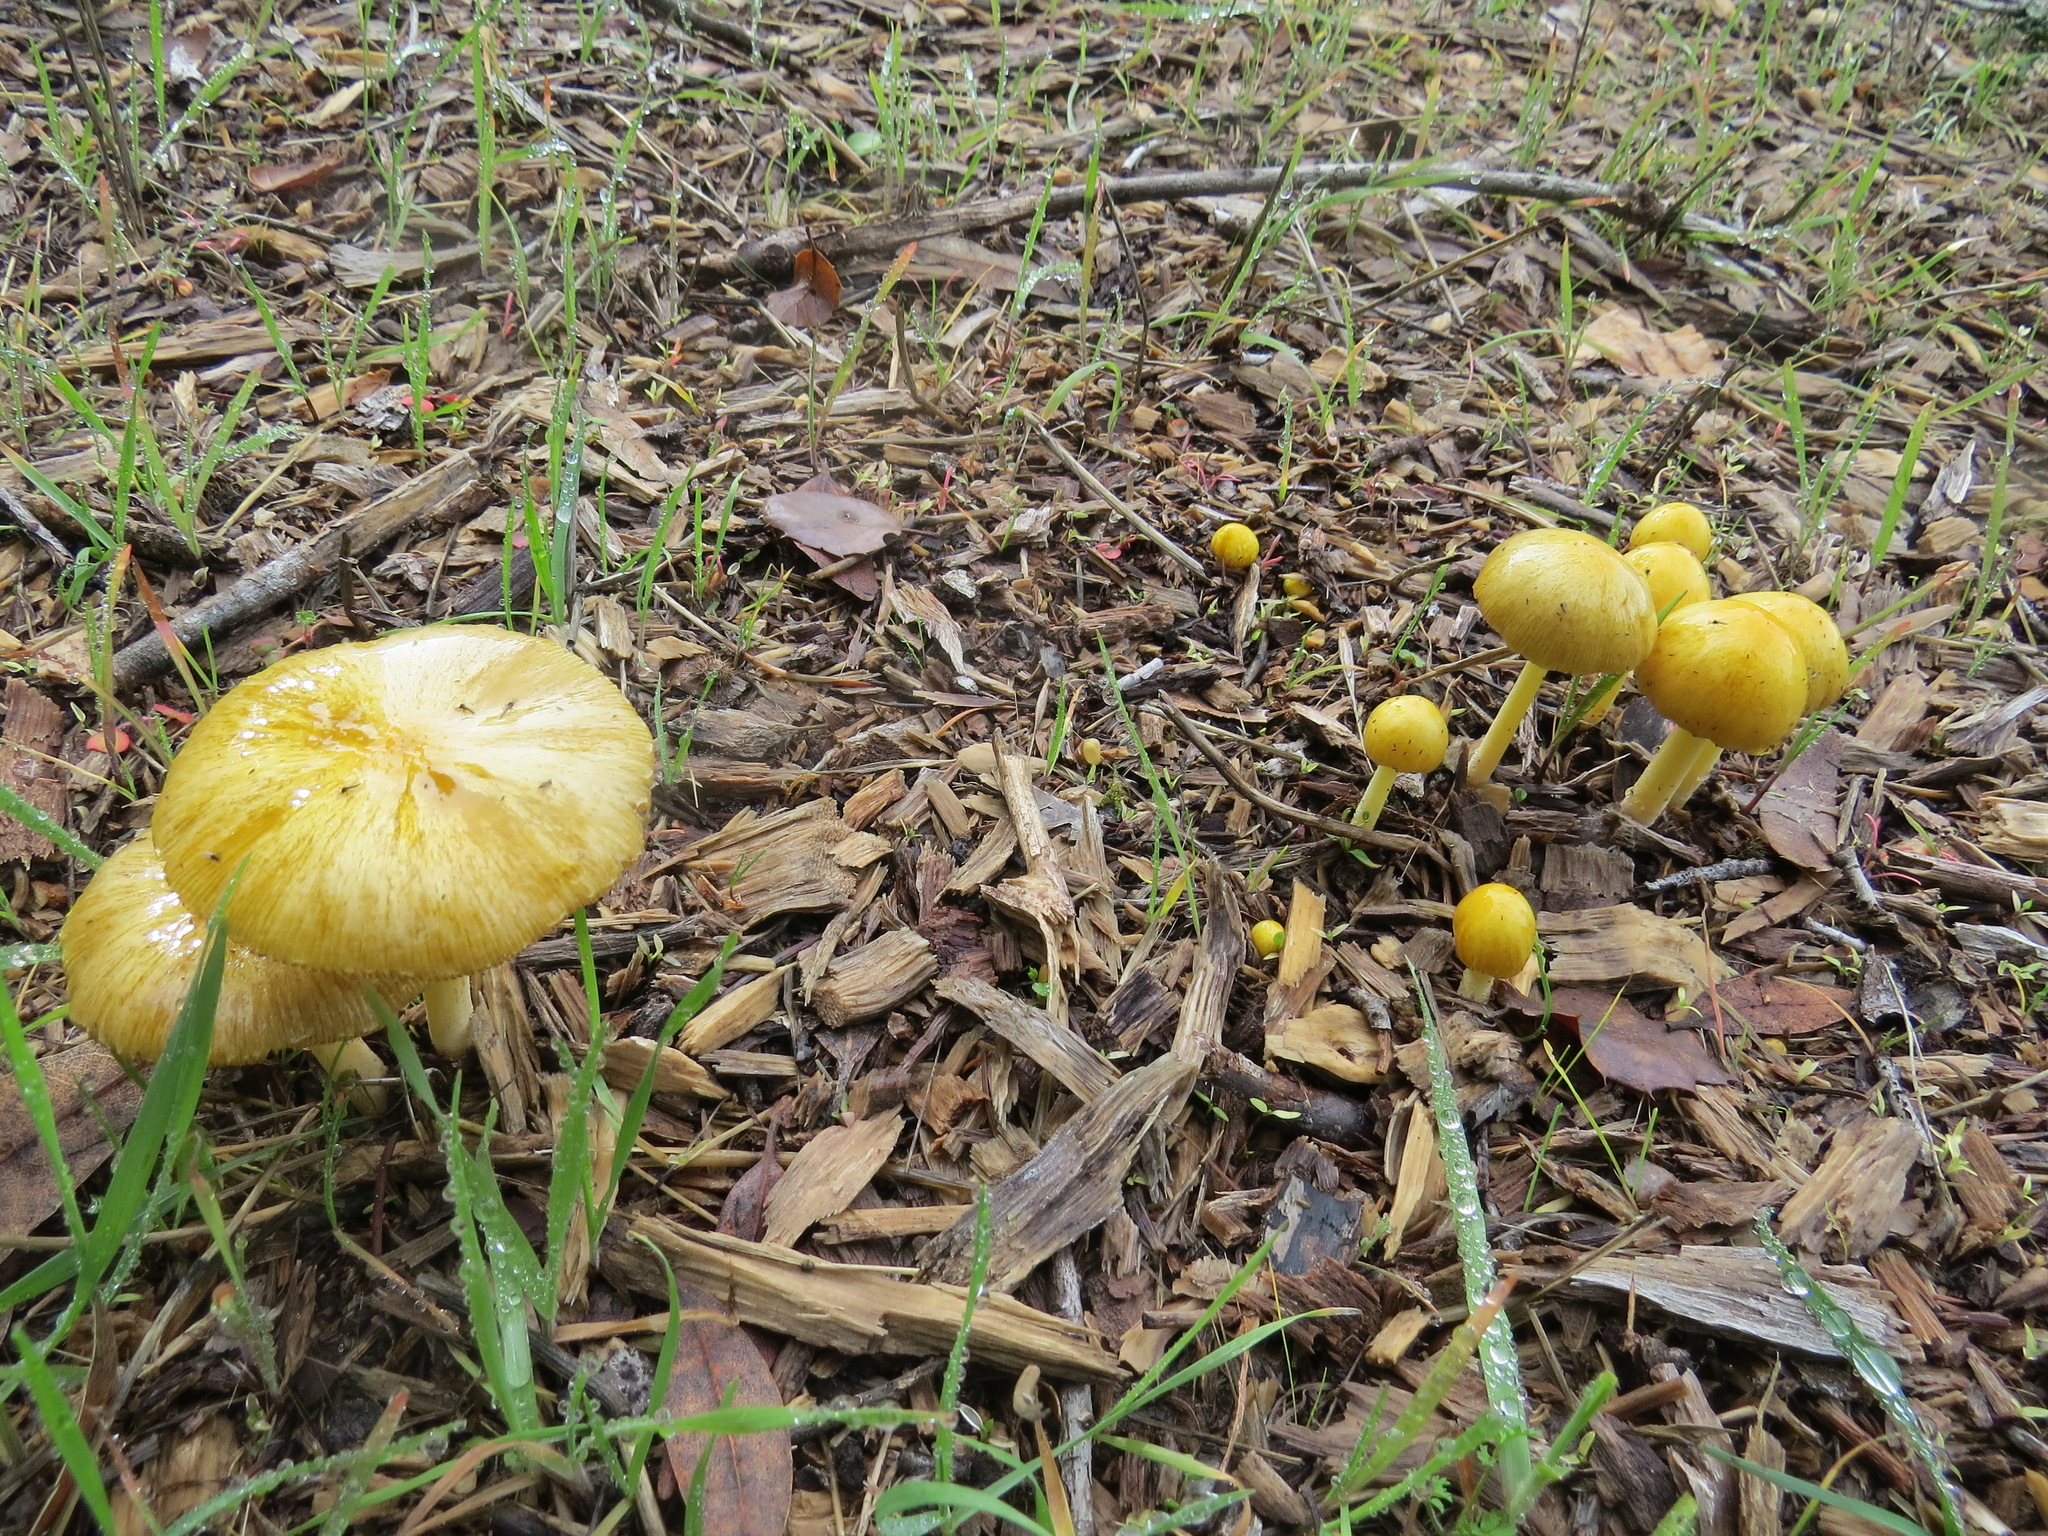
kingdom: Fungi
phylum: Basidiomycota
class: Agaricomycetes
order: Agaricales
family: Bolbitiaceae
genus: Bolbitius
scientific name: Bolbitius titubans
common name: Yellow fieldcap
